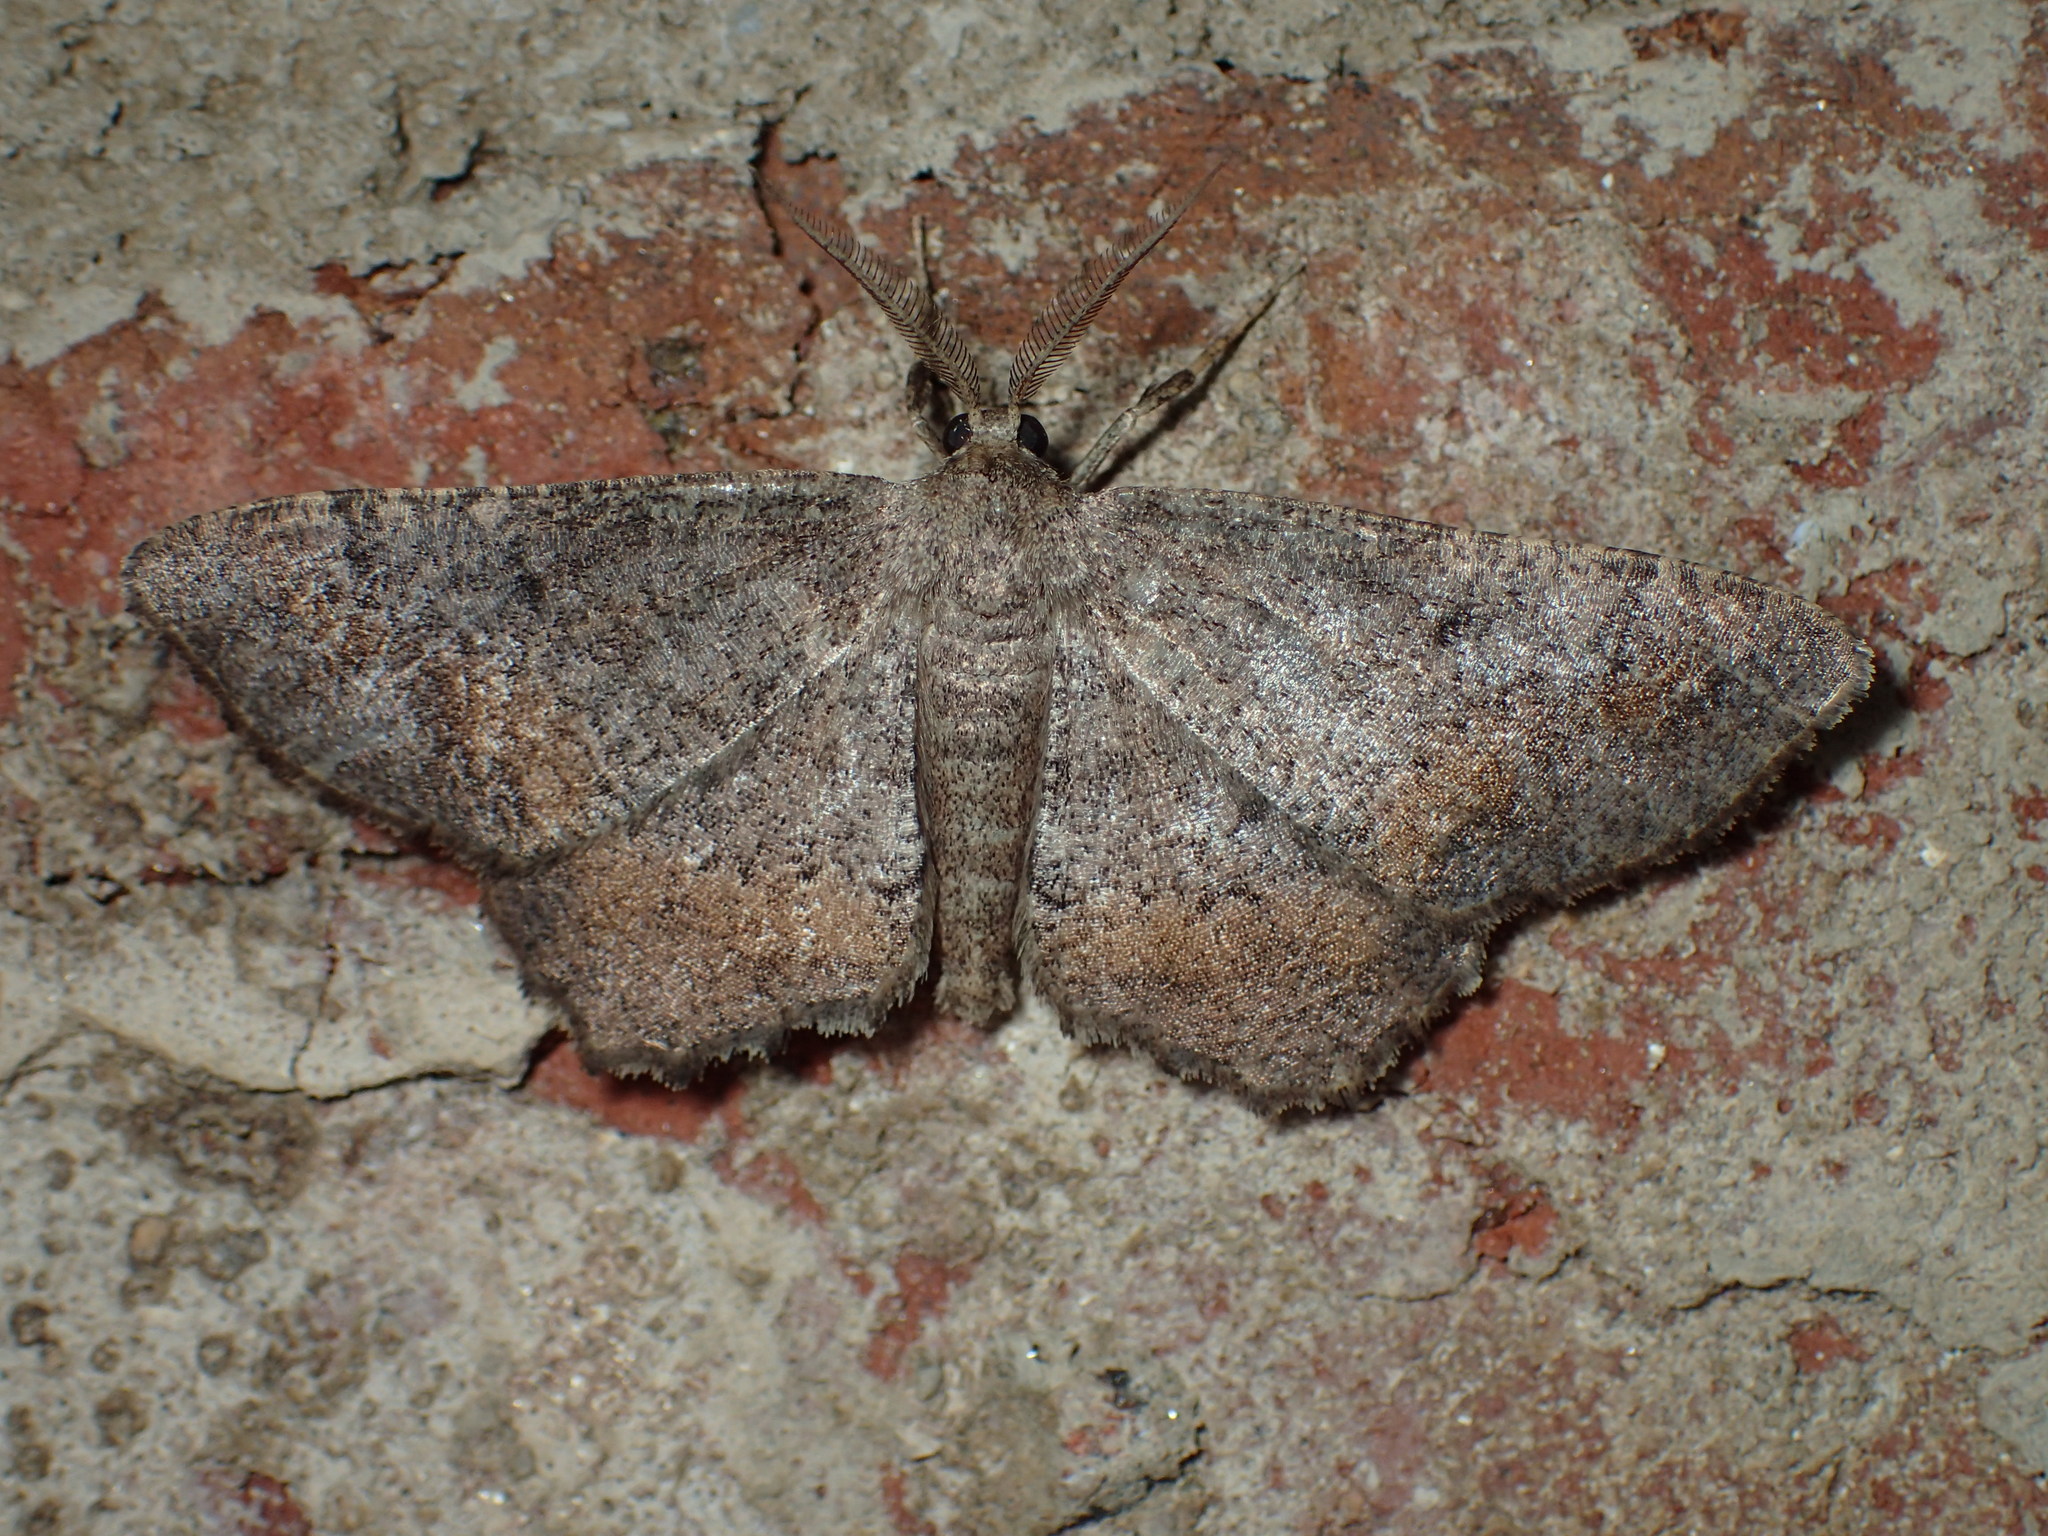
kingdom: Animalia
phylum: Arthropoda
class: Insecta
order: Lepidoptera
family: Geometridae
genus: Hypagyrtis
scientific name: Hypagyrtis
